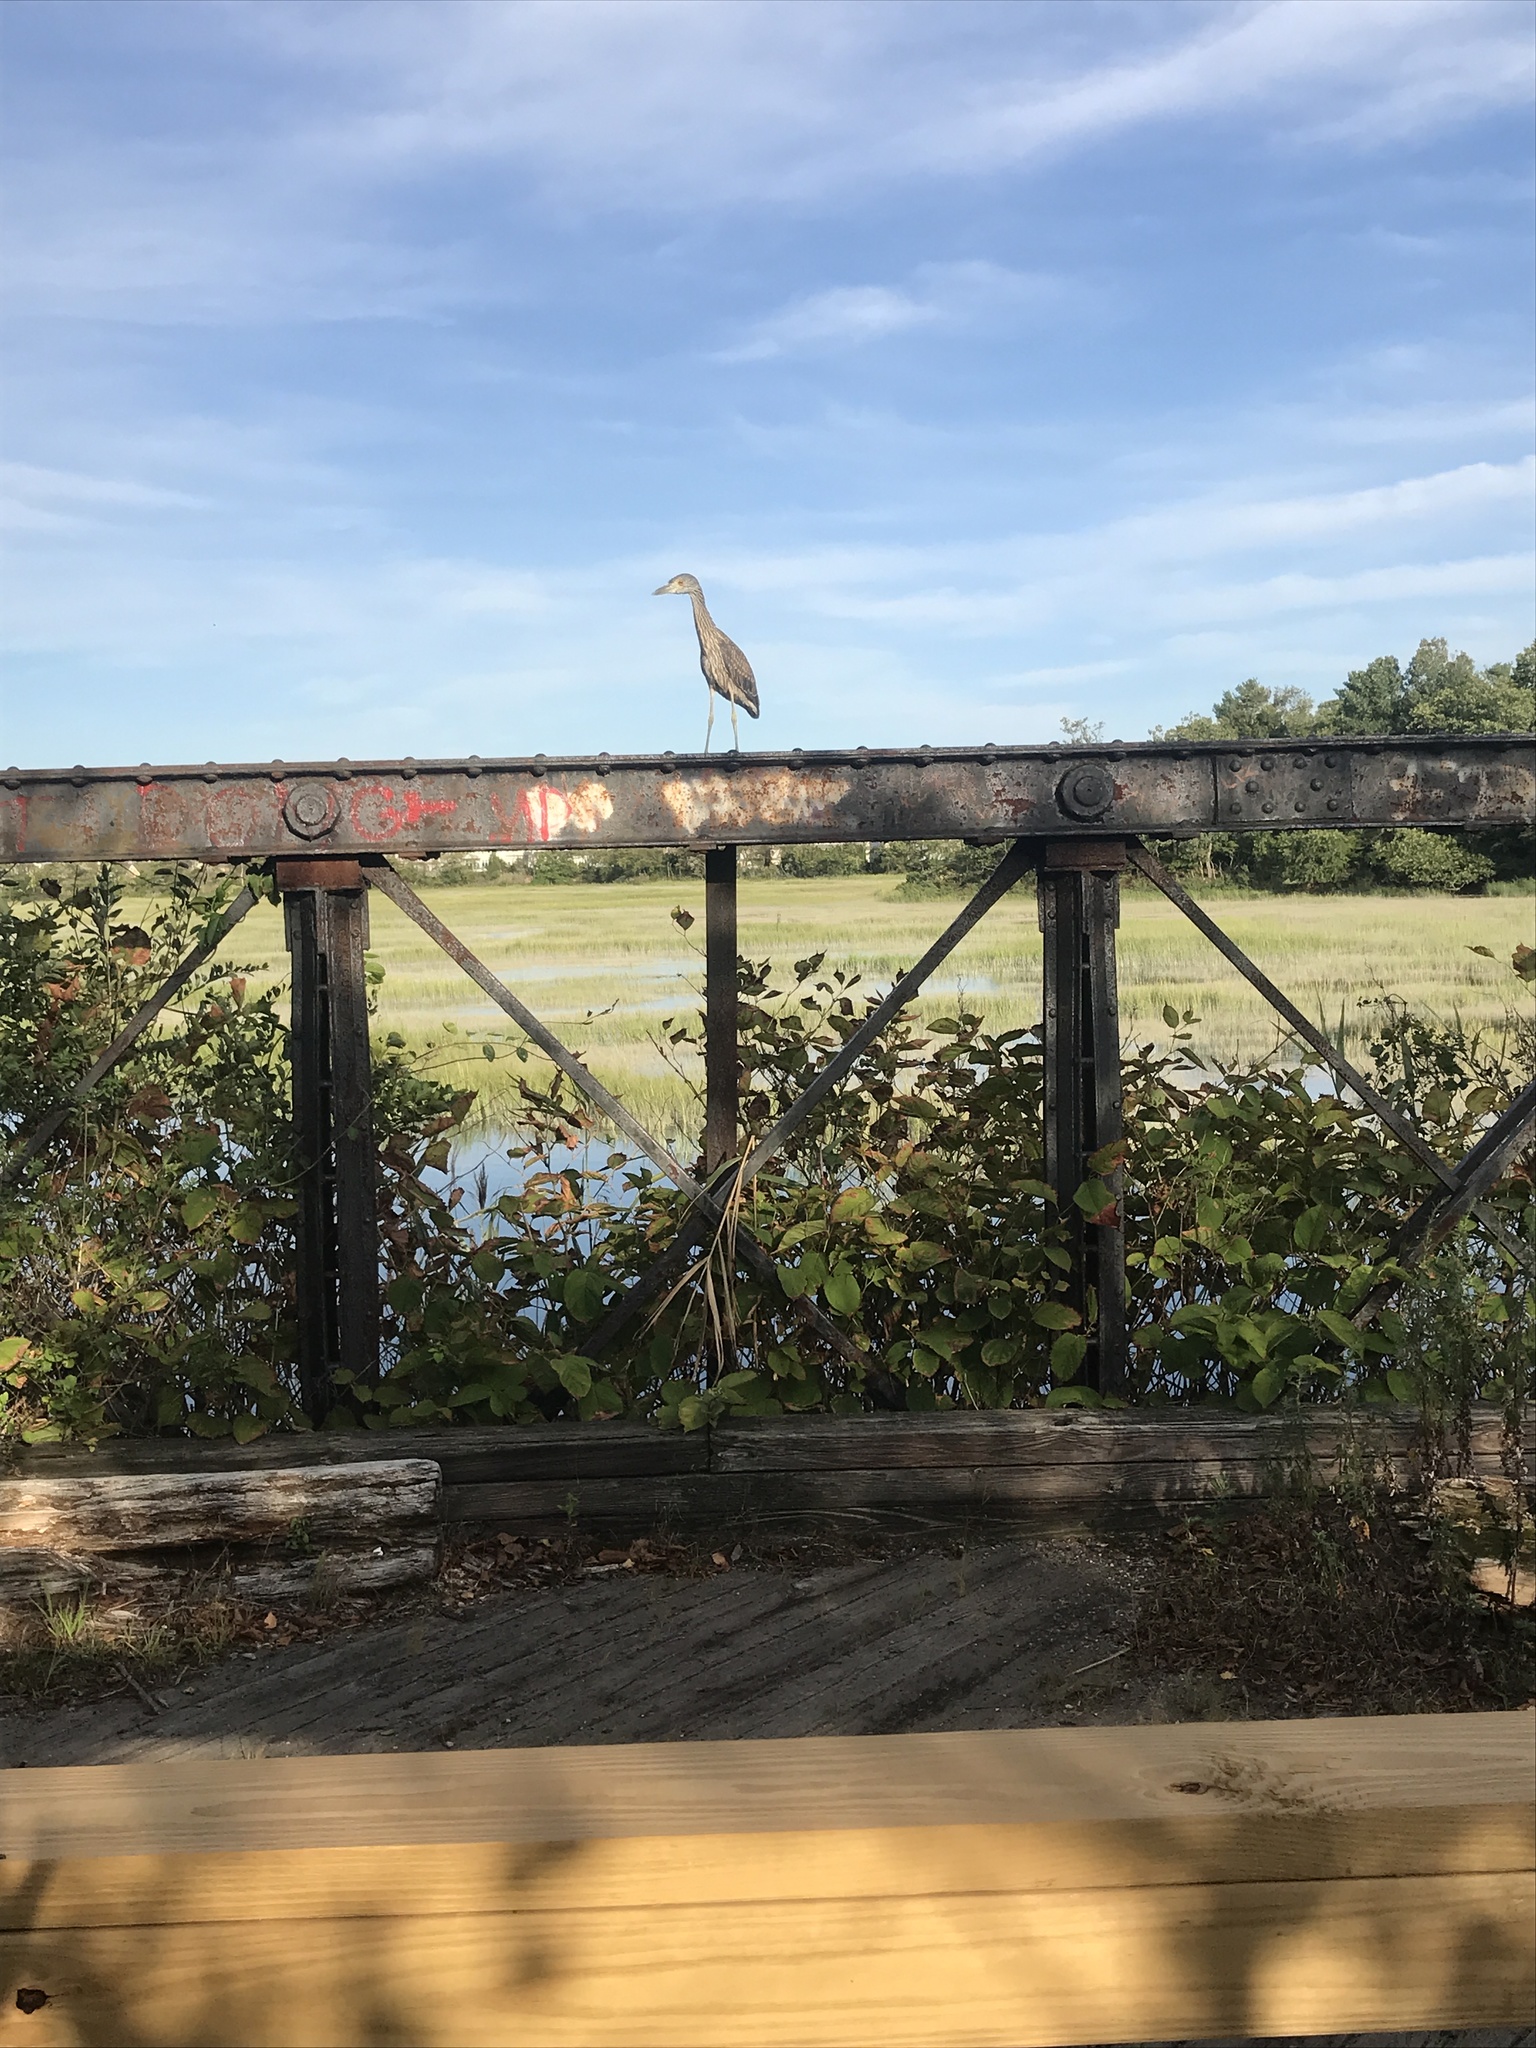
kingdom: Animalia
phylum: Chordata
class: Aves
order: Pelecaniformes
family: Ardeidae
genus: Nyctanassa
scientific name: Nyctanassa violacea
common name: Yellow-crowned night heron
